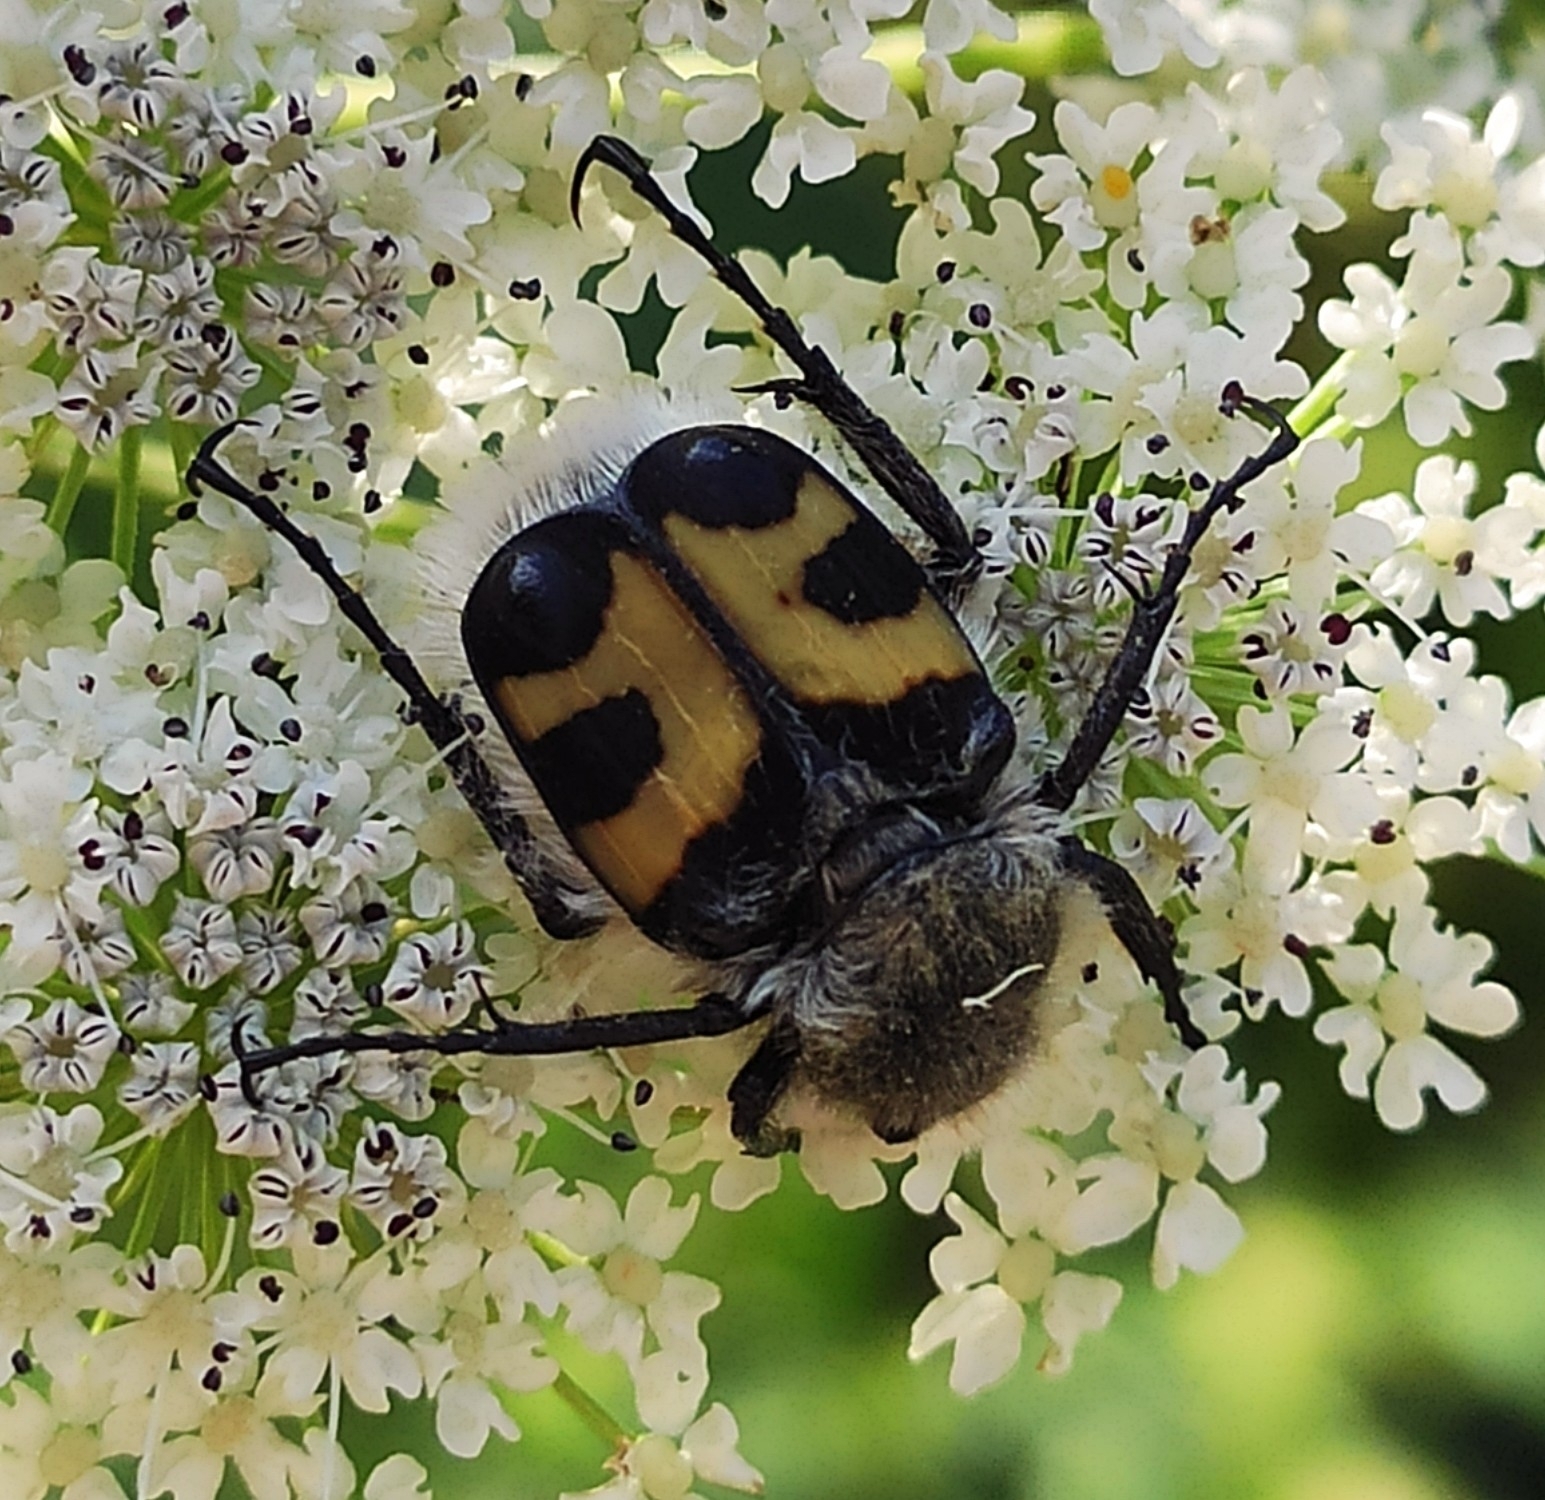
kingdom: Animalia
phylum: Arthropoda
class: Insecta
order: Coleoptera
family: Scarabaeidae
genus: Trichius
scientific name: Trichius fasciatus
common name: Bee beetle
